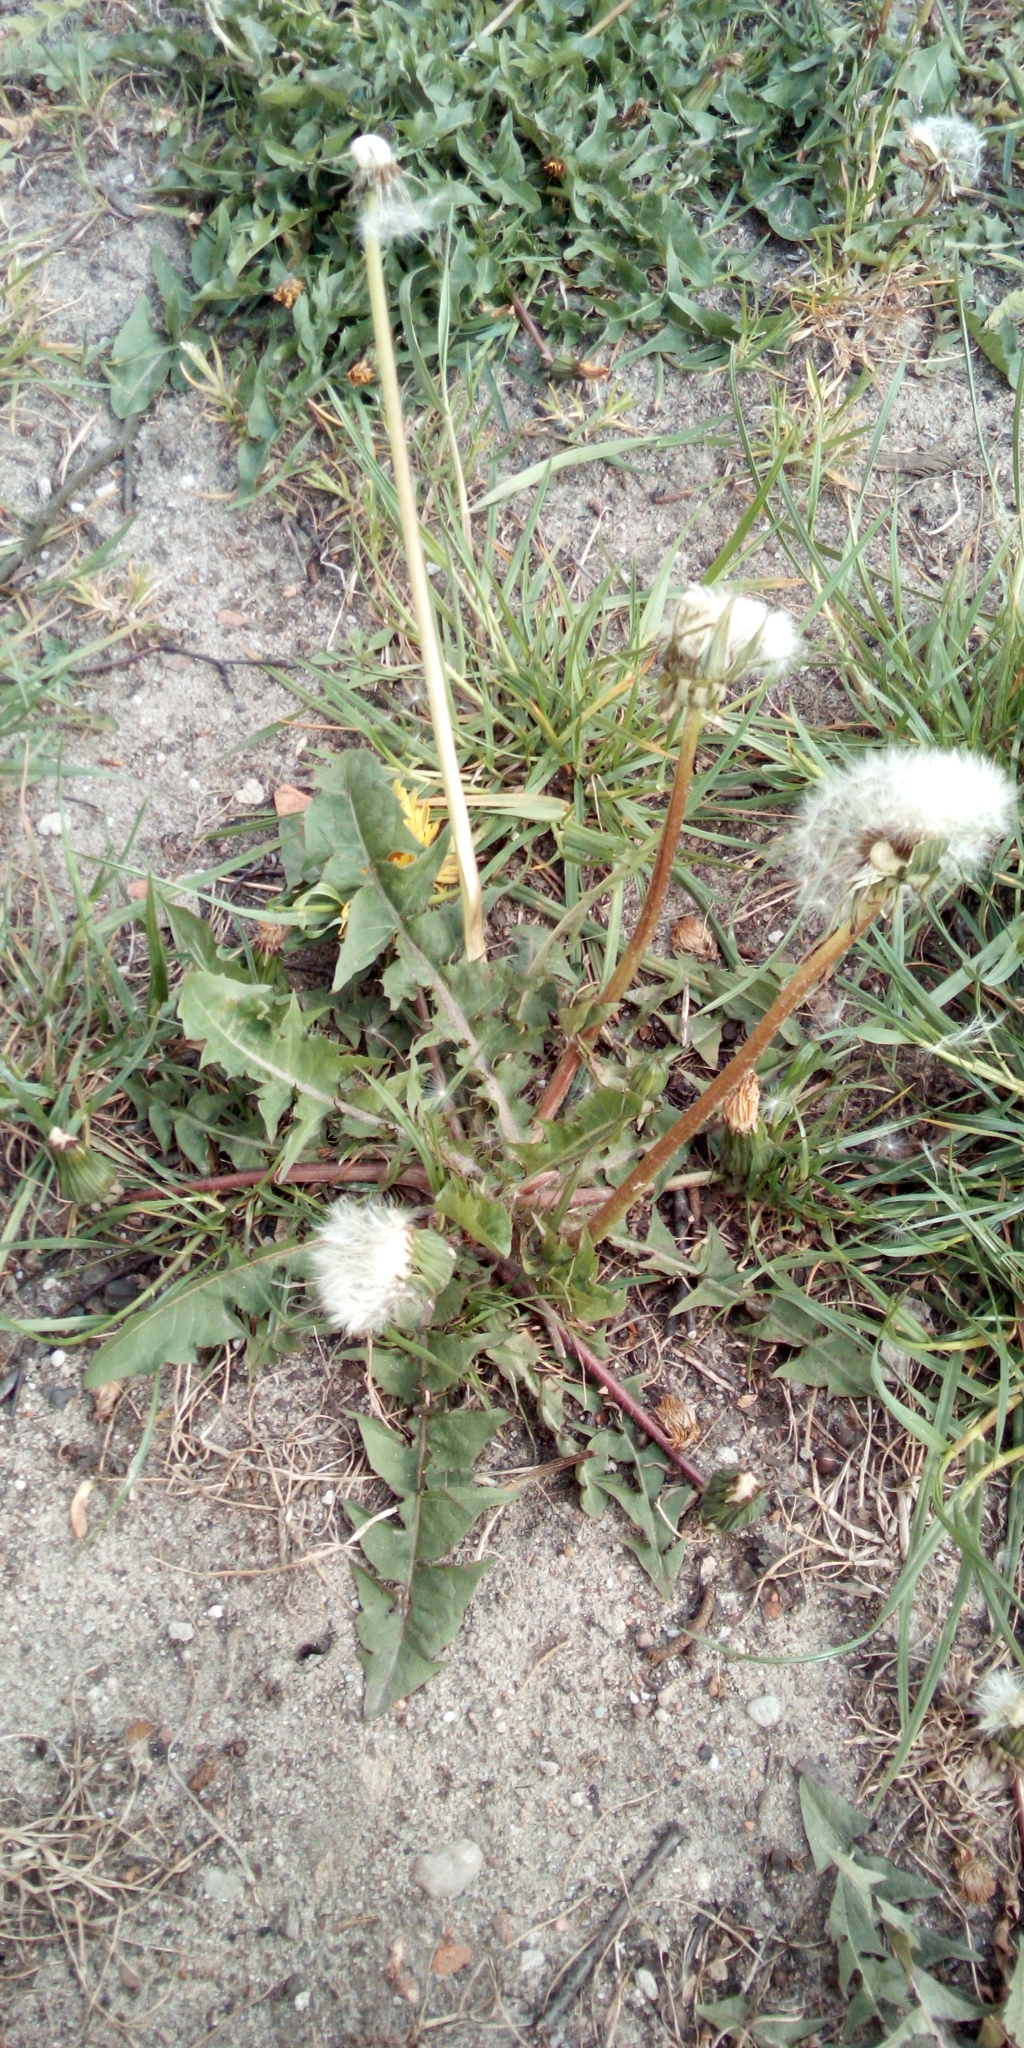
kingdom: Plantae
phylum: Tracheophyta
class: Magnoliopsida
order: Asterales
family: Asteraceae
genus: Taraxacum
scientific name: Taraxacum officinale
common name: Common dandelion
